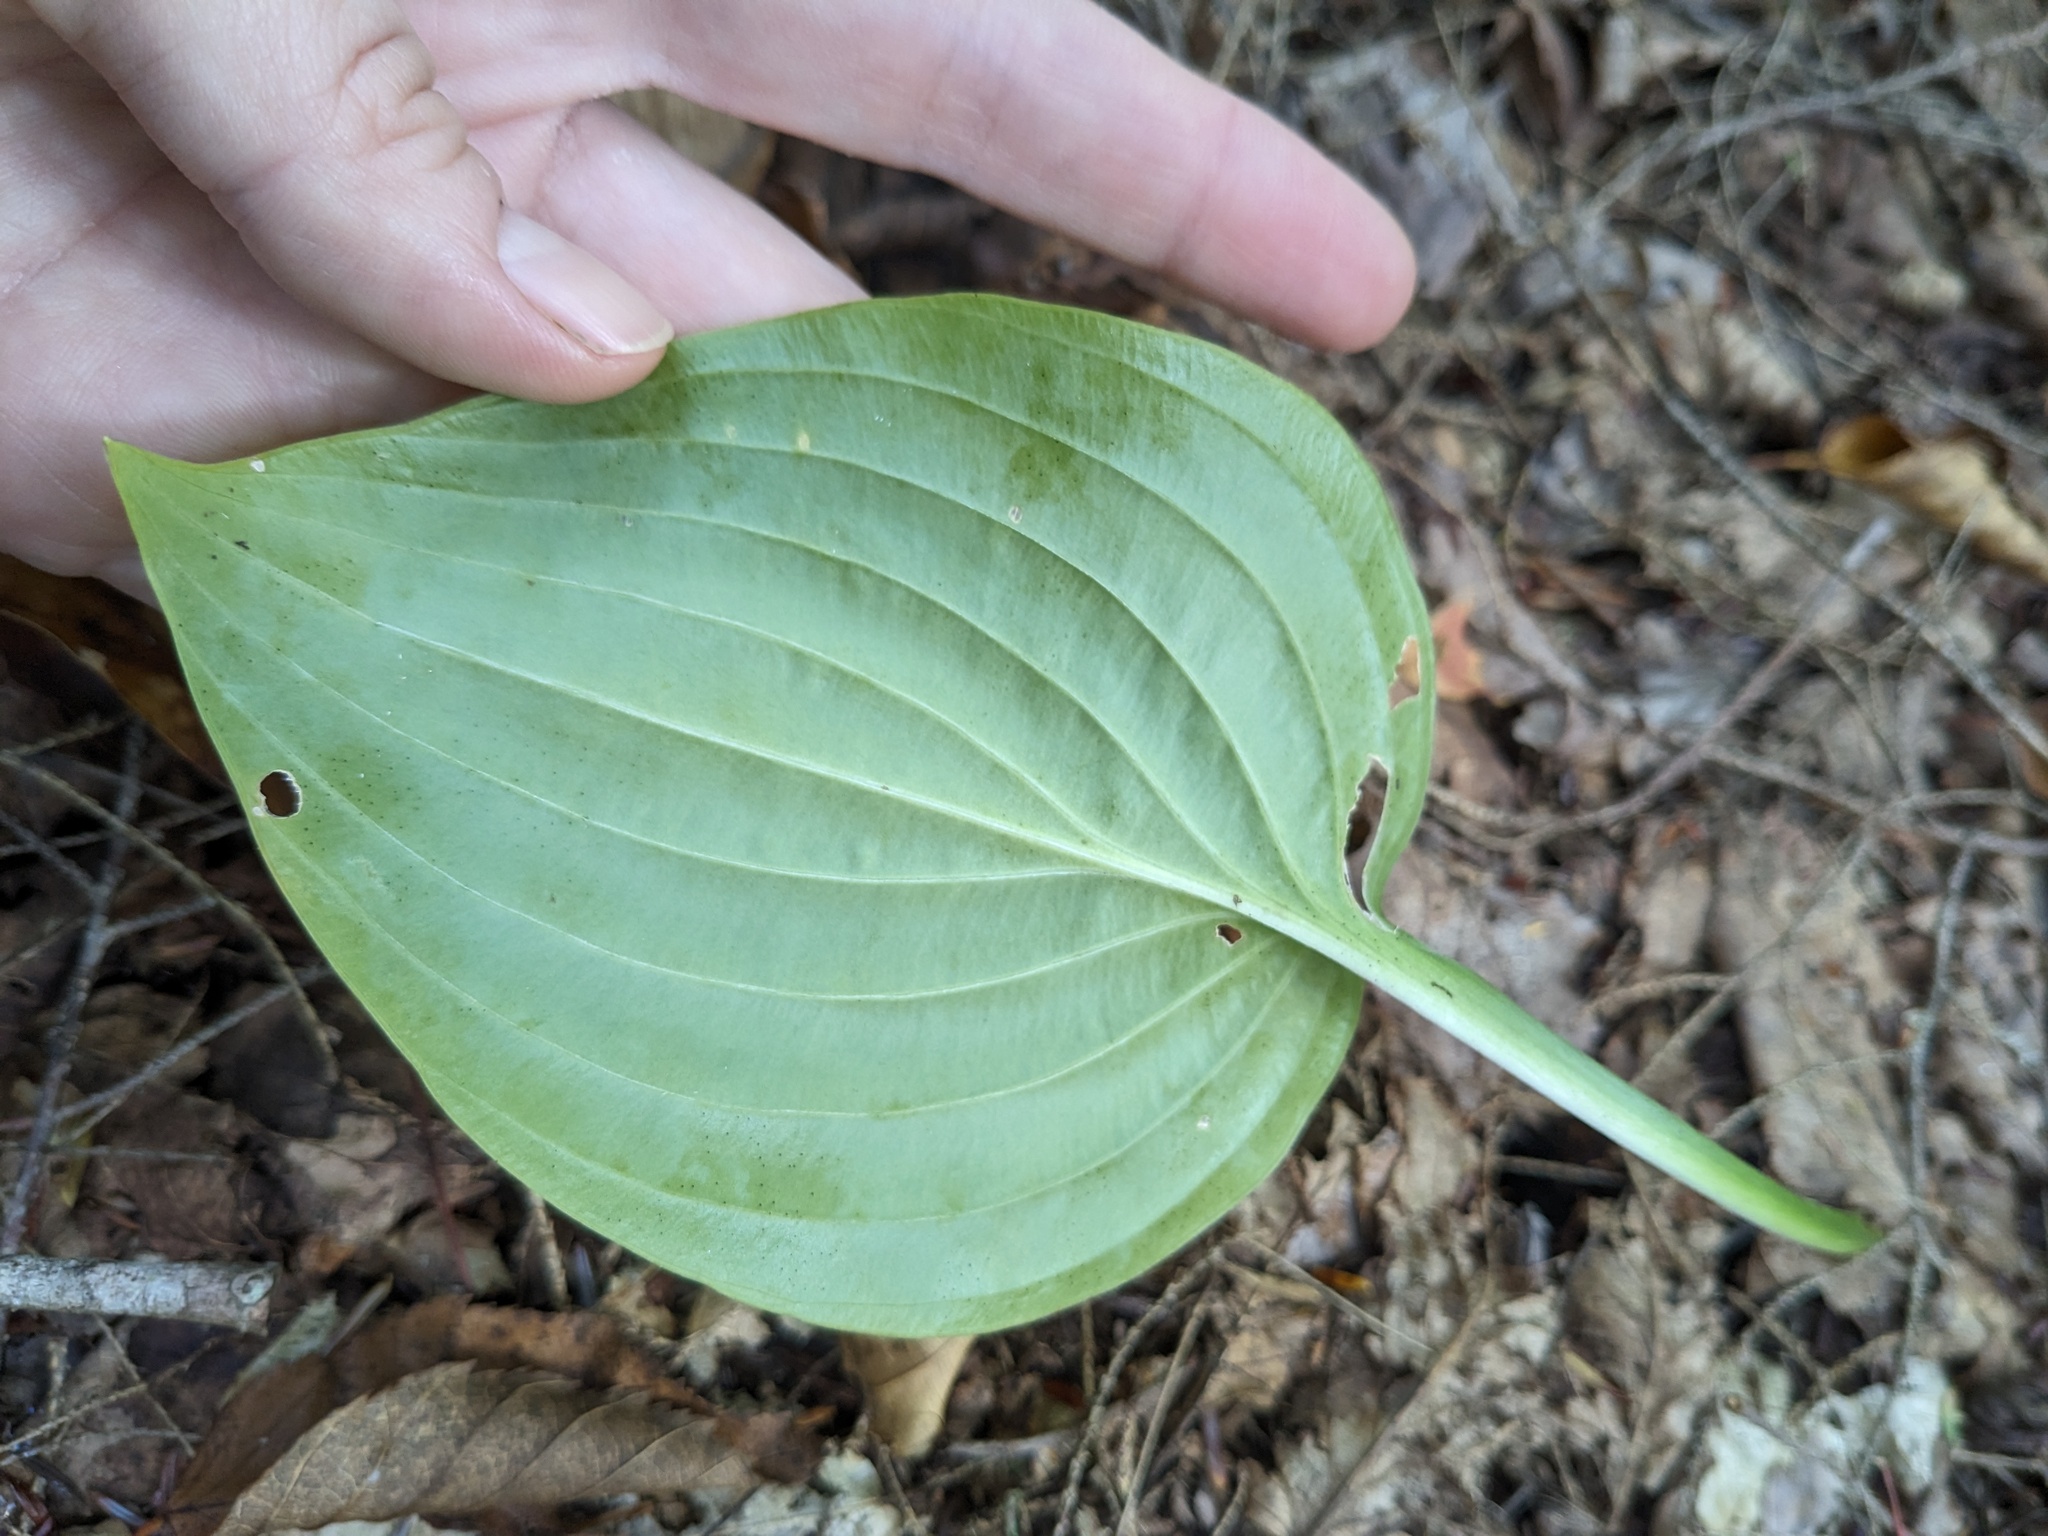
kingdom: Plantae
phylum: Tracheophyta
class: Liliopsida
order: Asparagales
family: Asparagaceae
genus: Hosta
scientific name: Hosta
